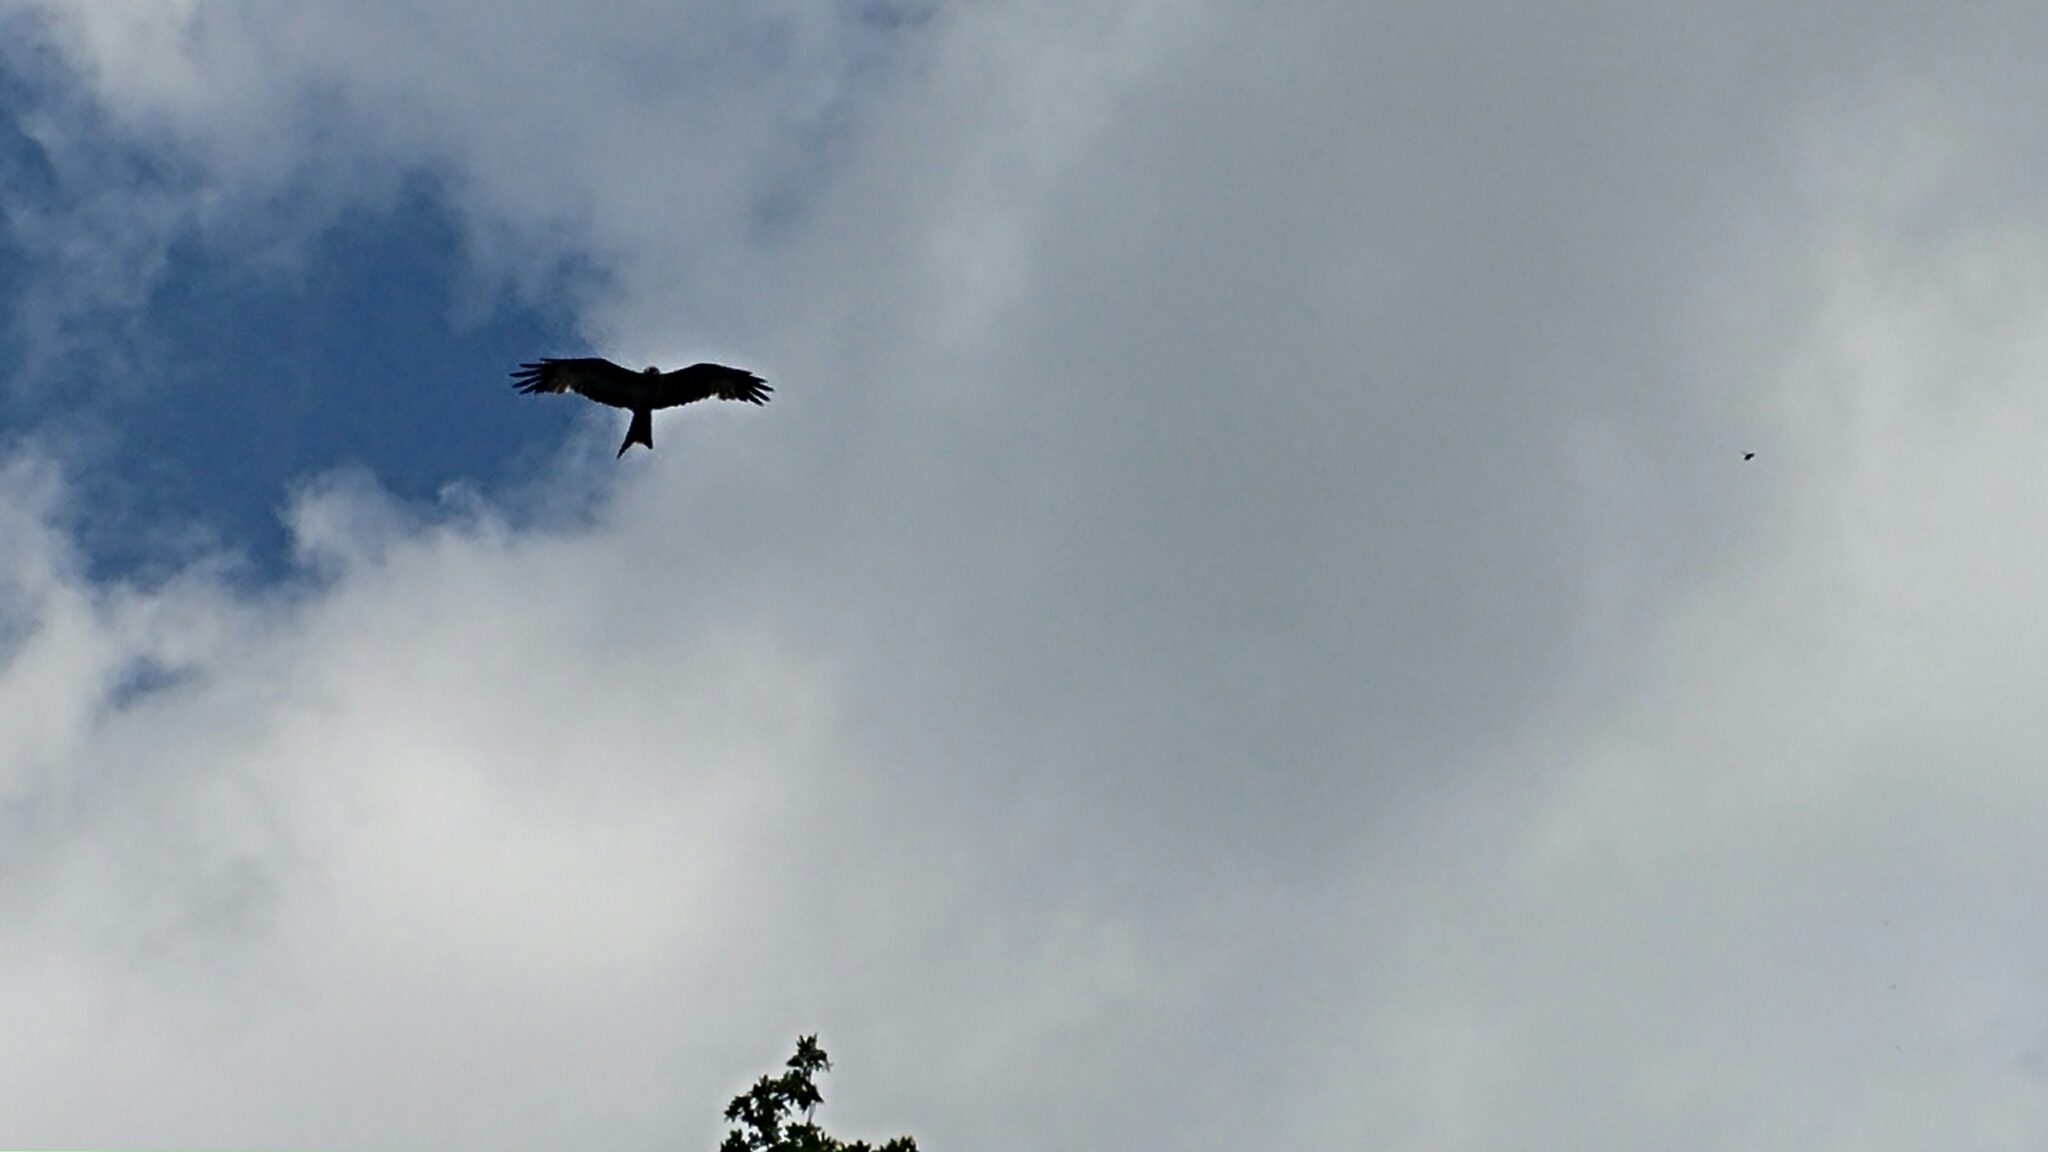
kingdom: Animalia
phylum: Chordata
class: Aves
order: Accipitriformes
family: Accipitridae
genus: Milvus
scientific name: Milvus milvus
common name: Red kite
